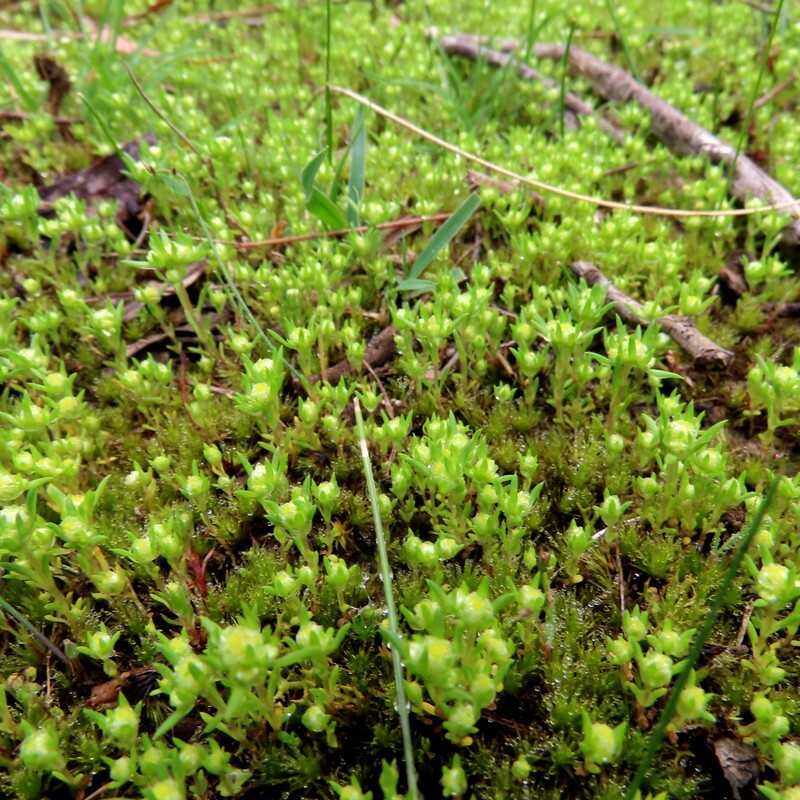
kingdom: Plantae
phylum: Tracheophyta
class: Magnoliopsida
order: Asterales
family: Asteraceae
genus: Siloxerus
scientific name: Siloxerus multiflorus
